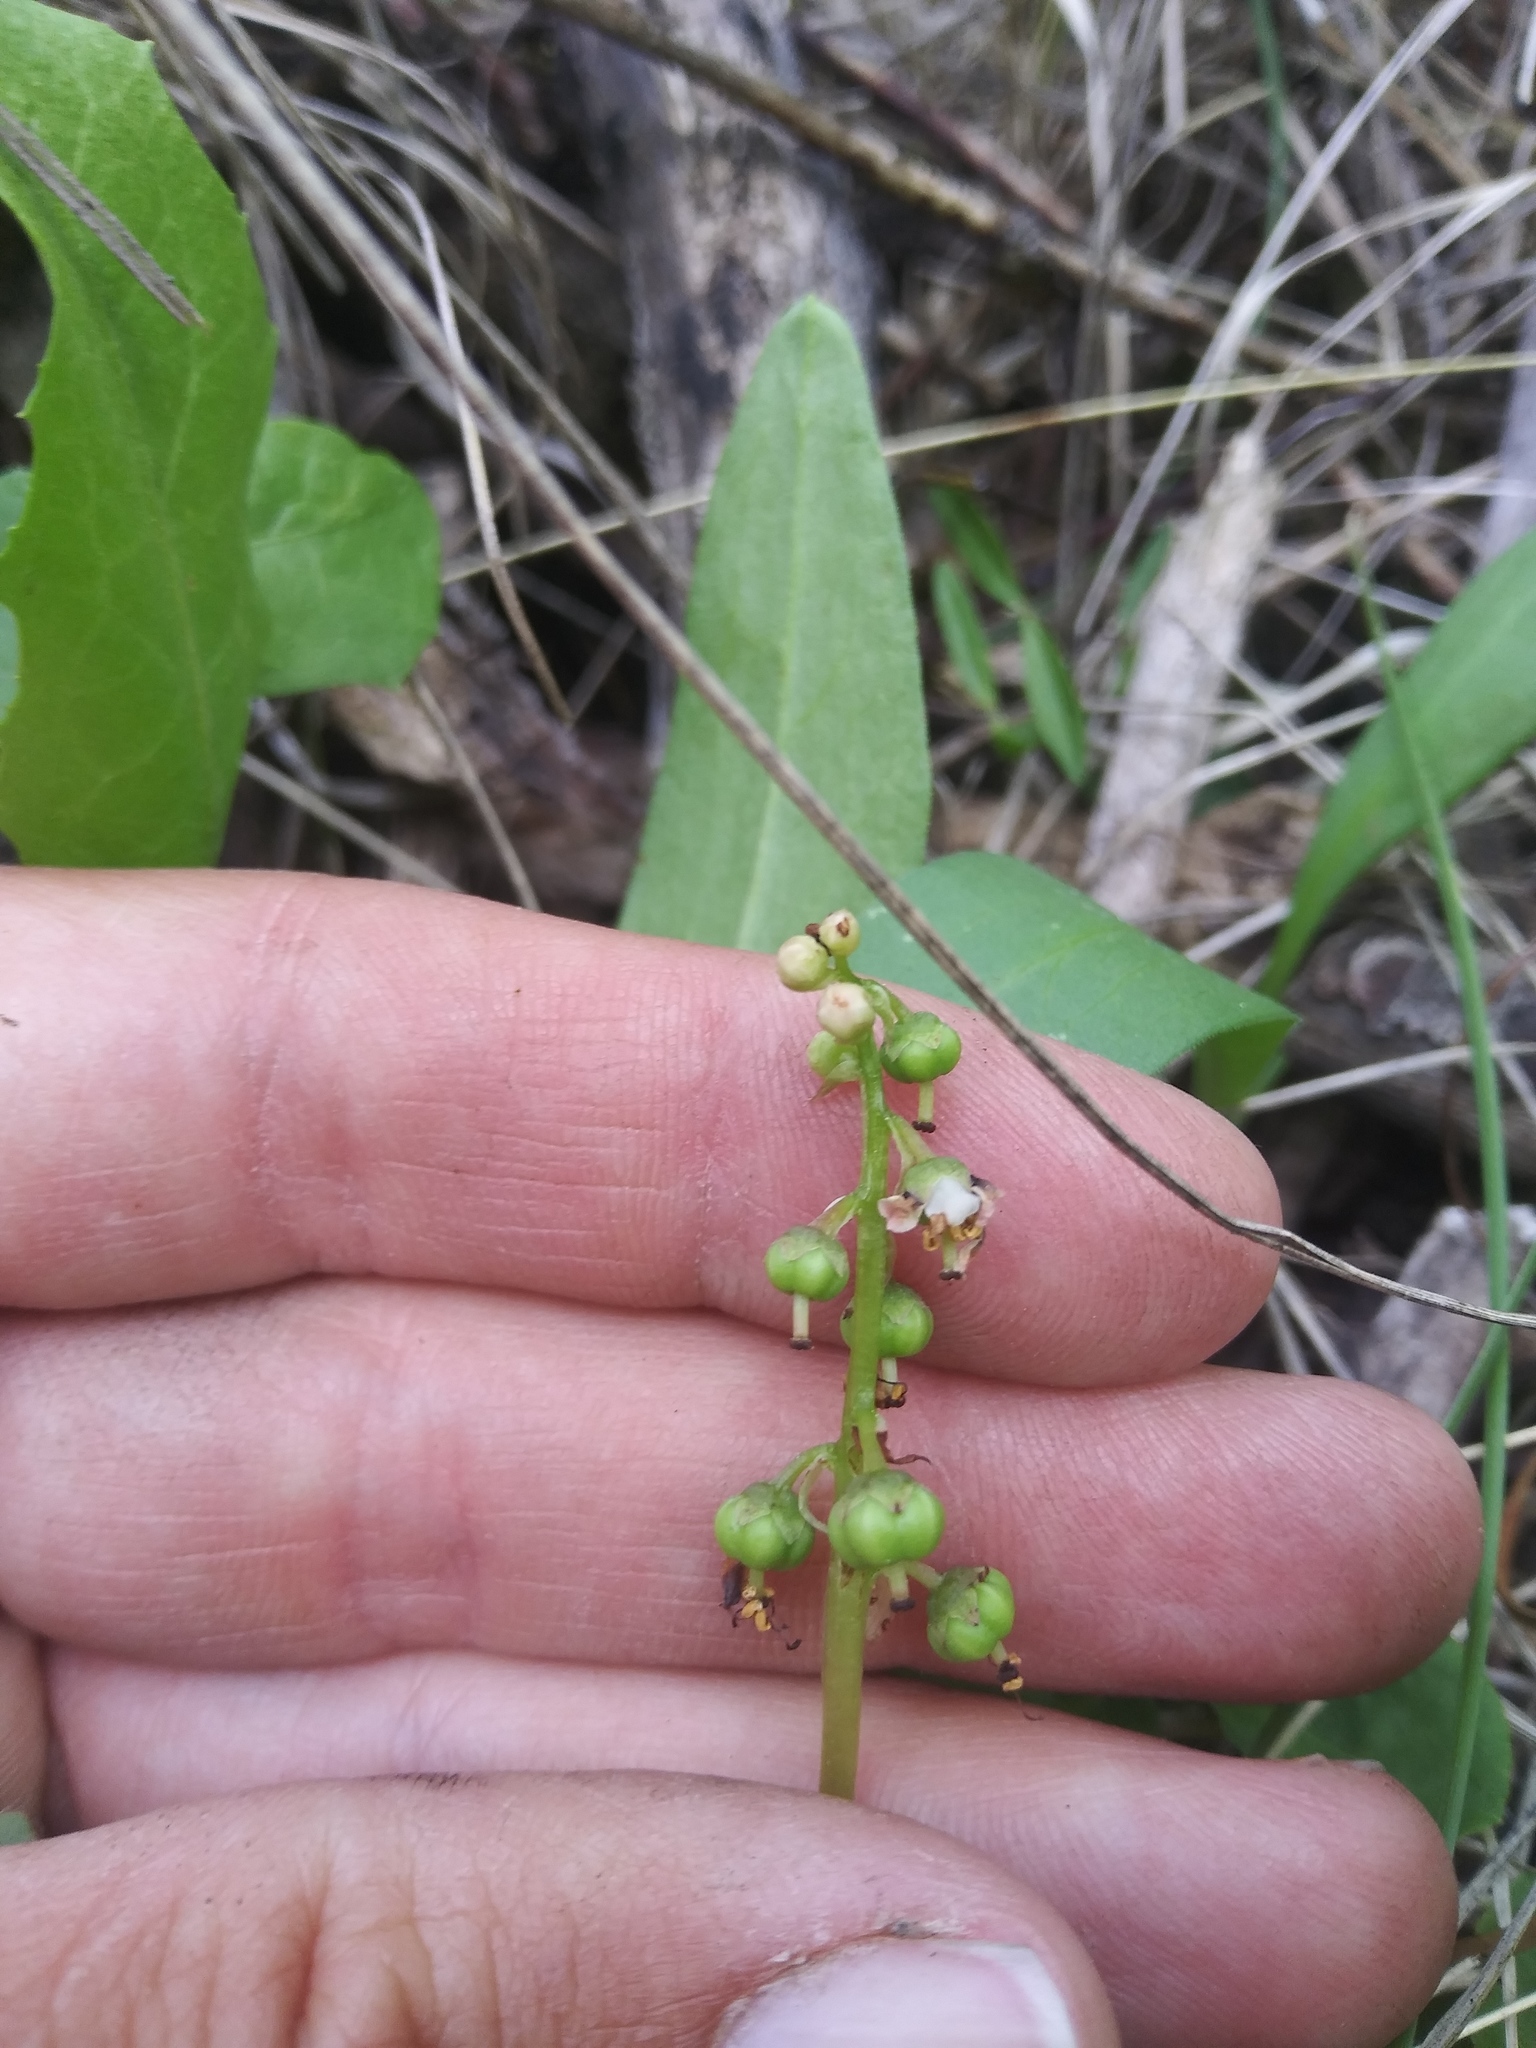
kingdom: Plantae
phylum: Tracheophyta
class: Magnoliopsida
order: Ericales
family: Ericaceae
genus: Pyrola
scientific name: Pyrola minor
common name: Common wintergreen
